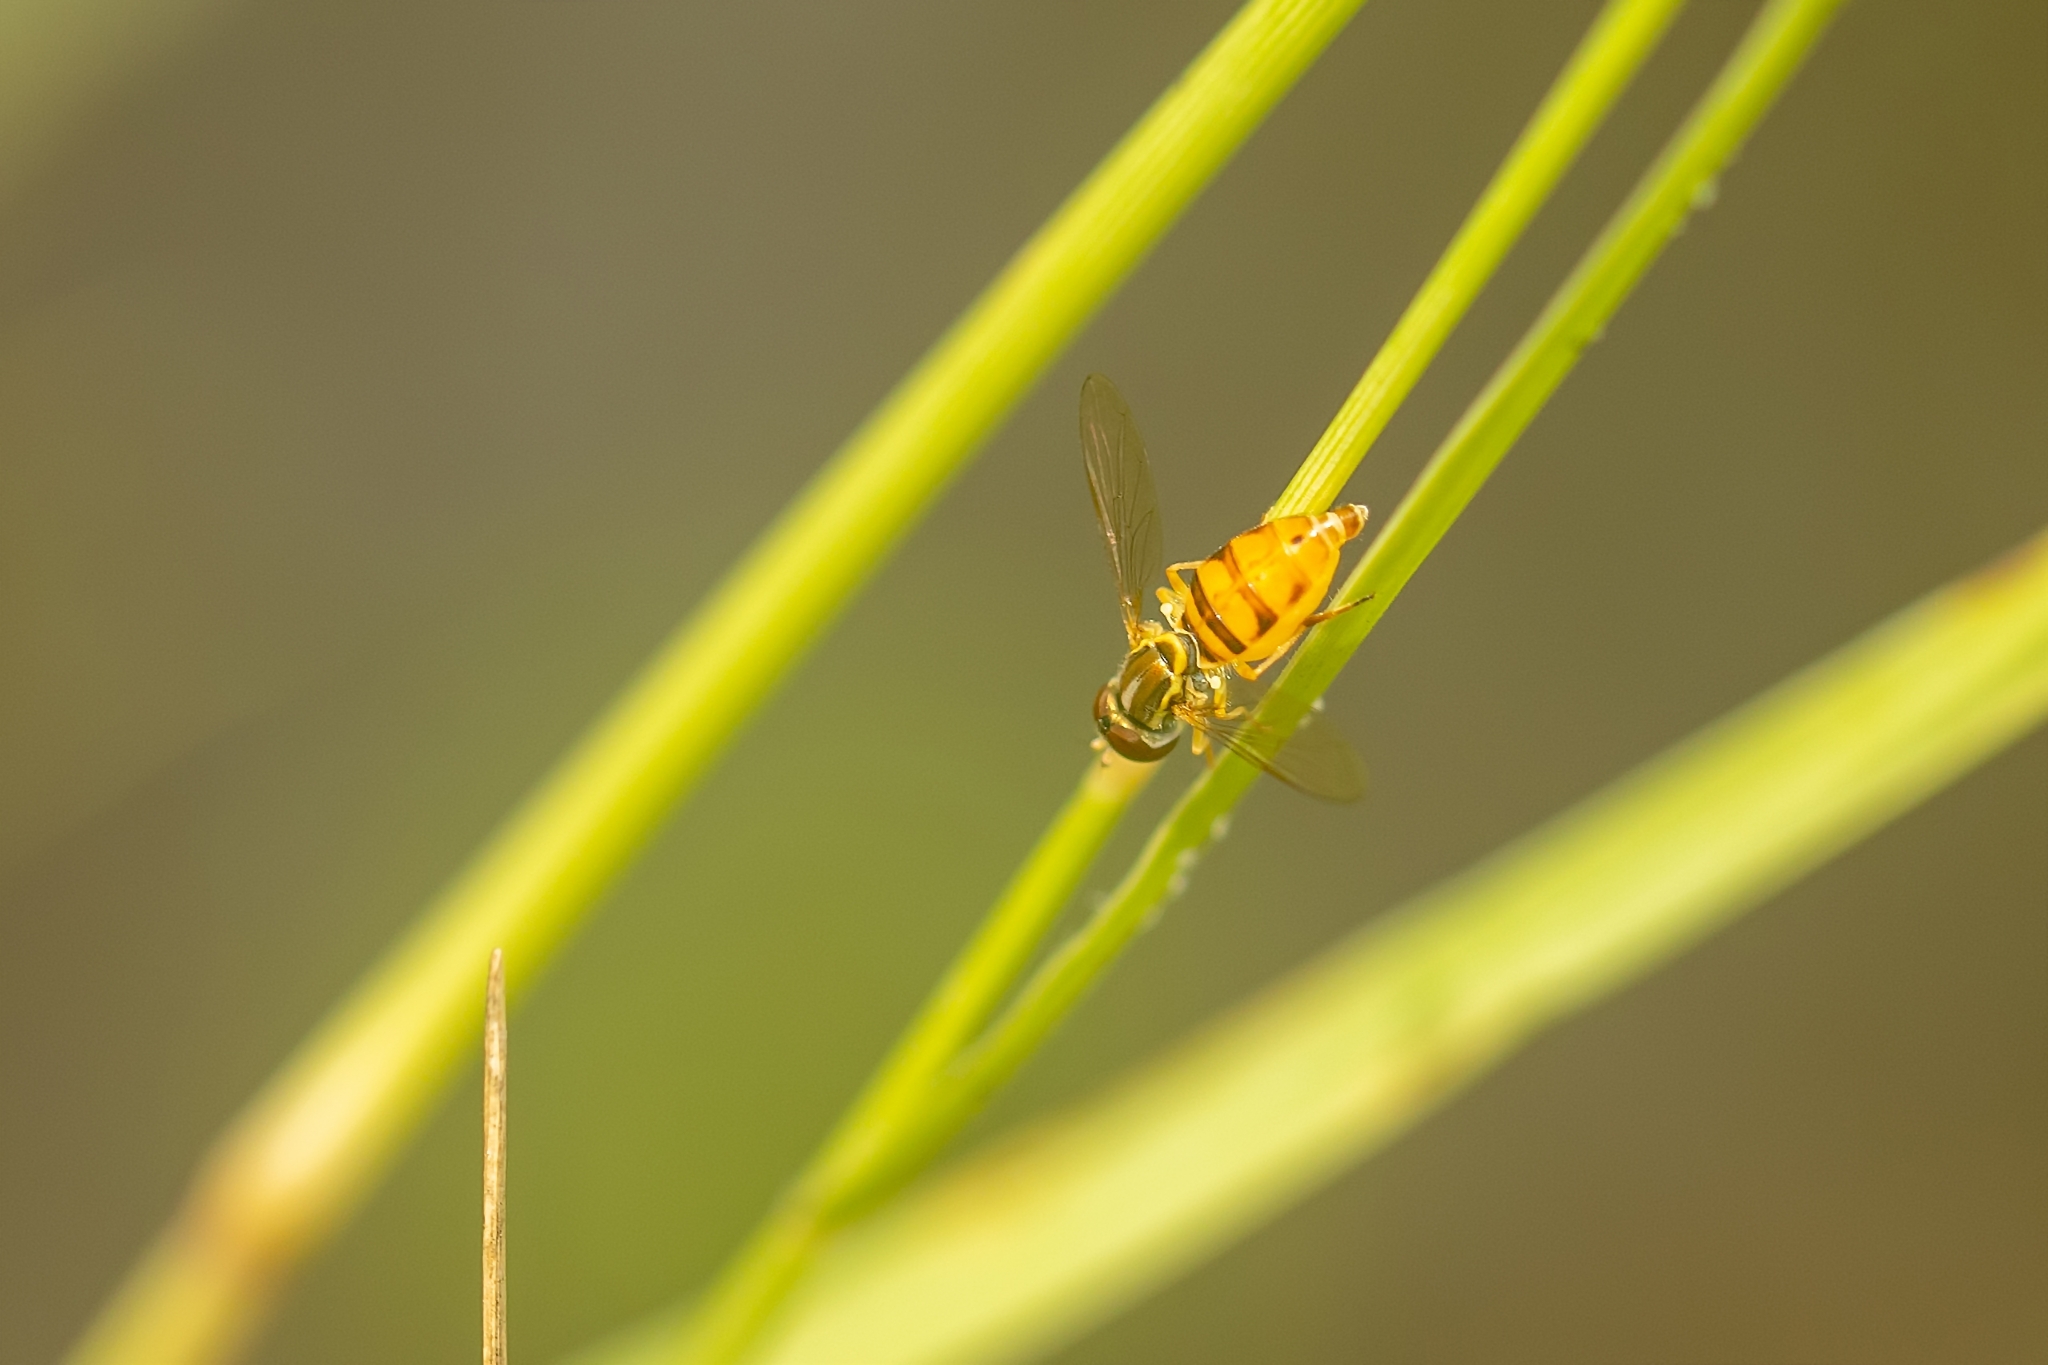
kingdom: Animalia
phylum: Arthropoda
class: Insecta
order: Diptera
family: Syrphidae
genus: Toxomerus
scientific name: Toxomerus floralis
